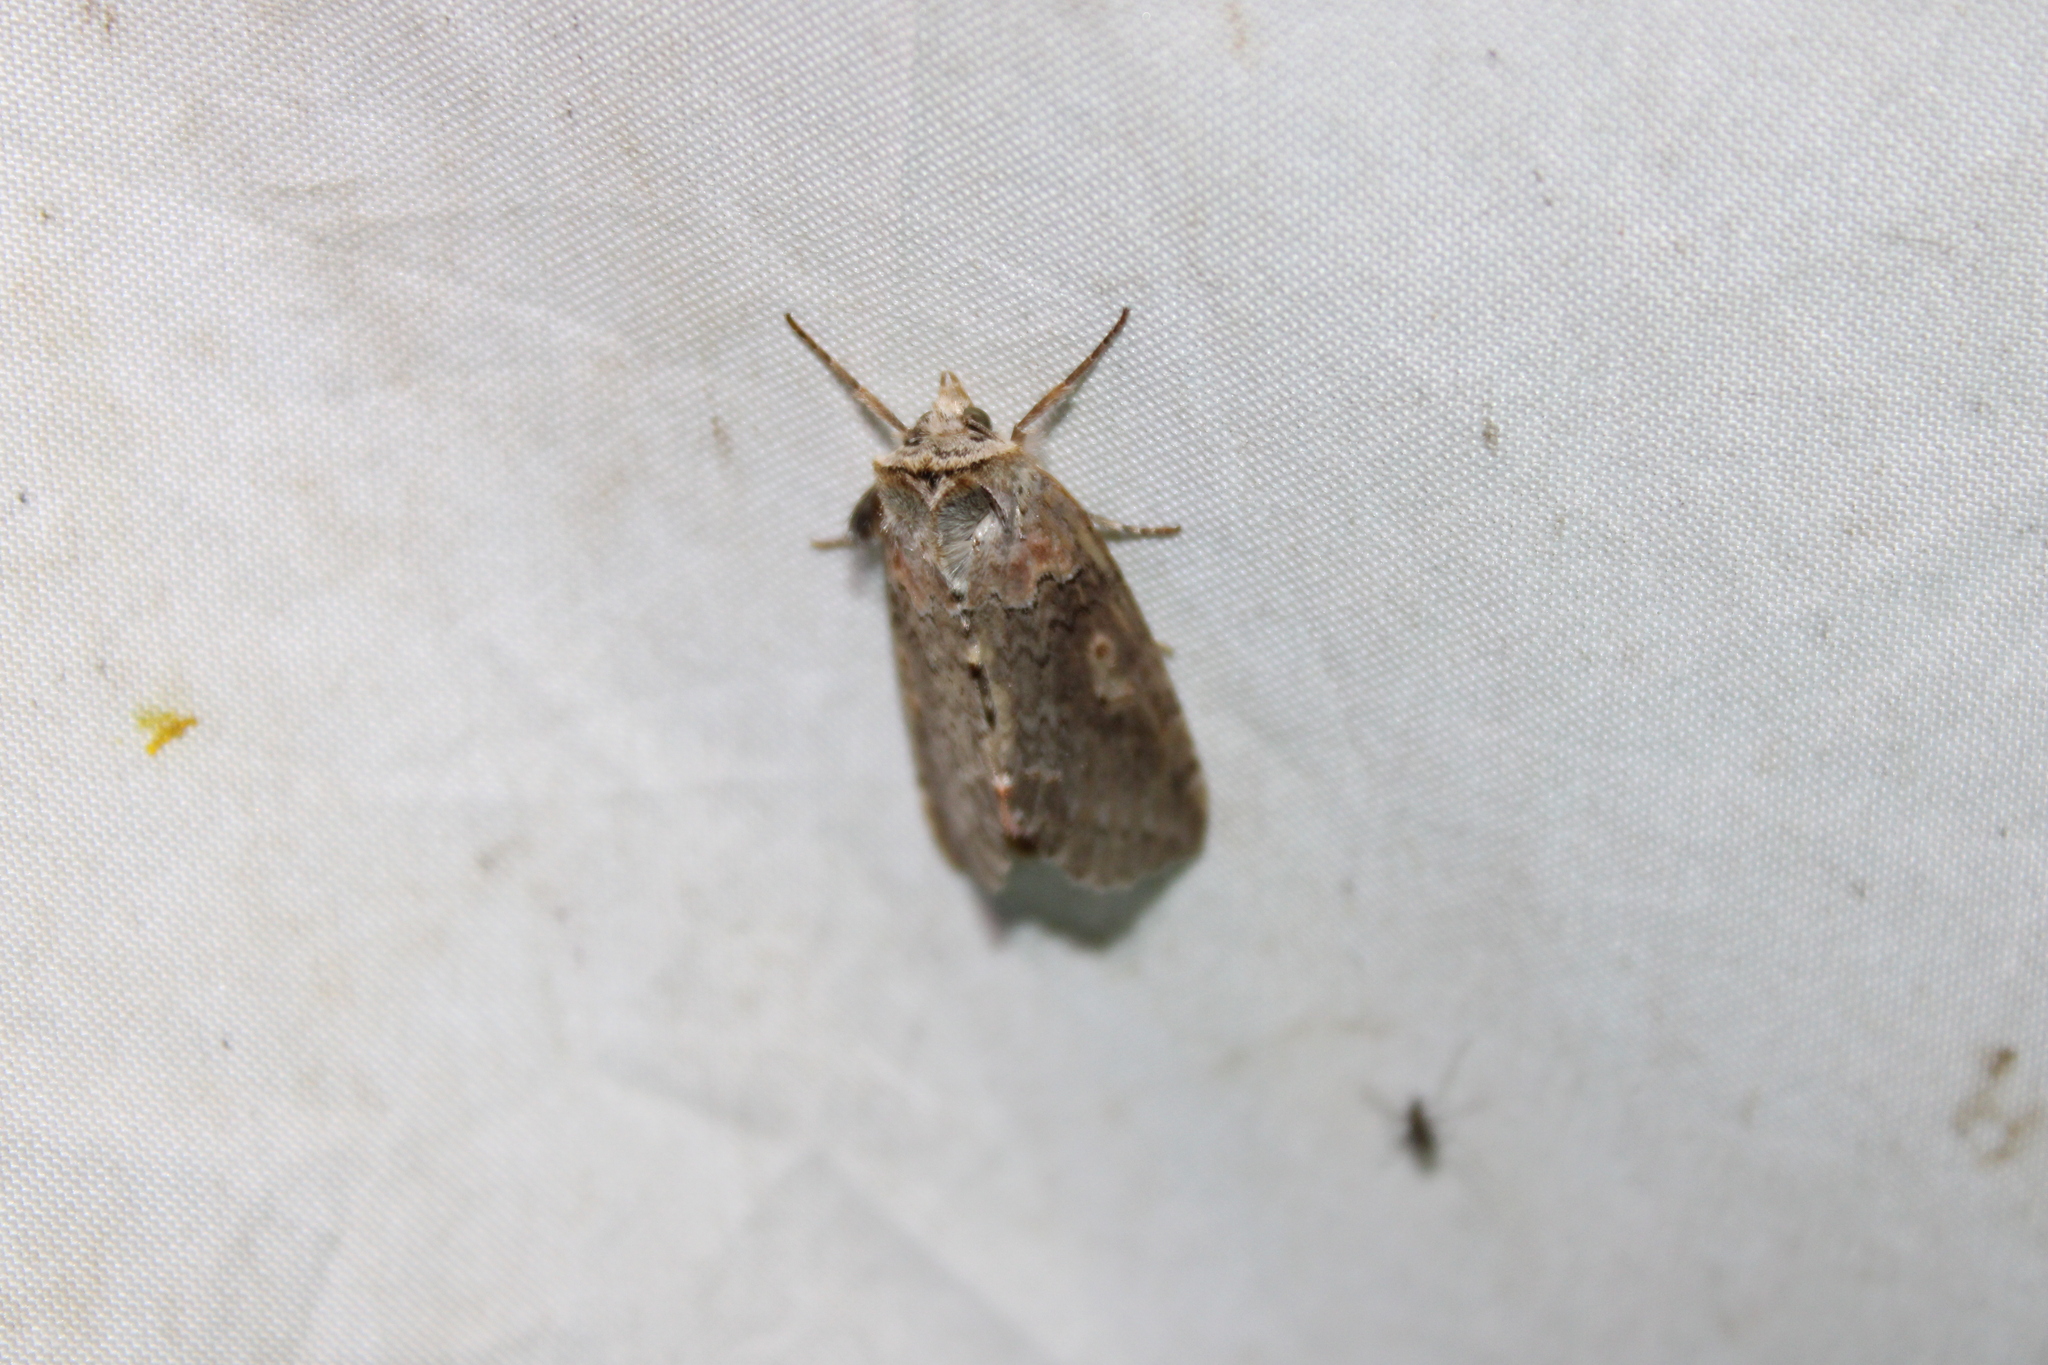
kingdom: Animalia
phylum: Arthropoda
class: Insecta
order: Lepidoptera
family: Drepanidae
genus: Pseudothyatira
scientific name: Pseudothyatira cymatophoroides
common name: Tufted thyatirid moth
